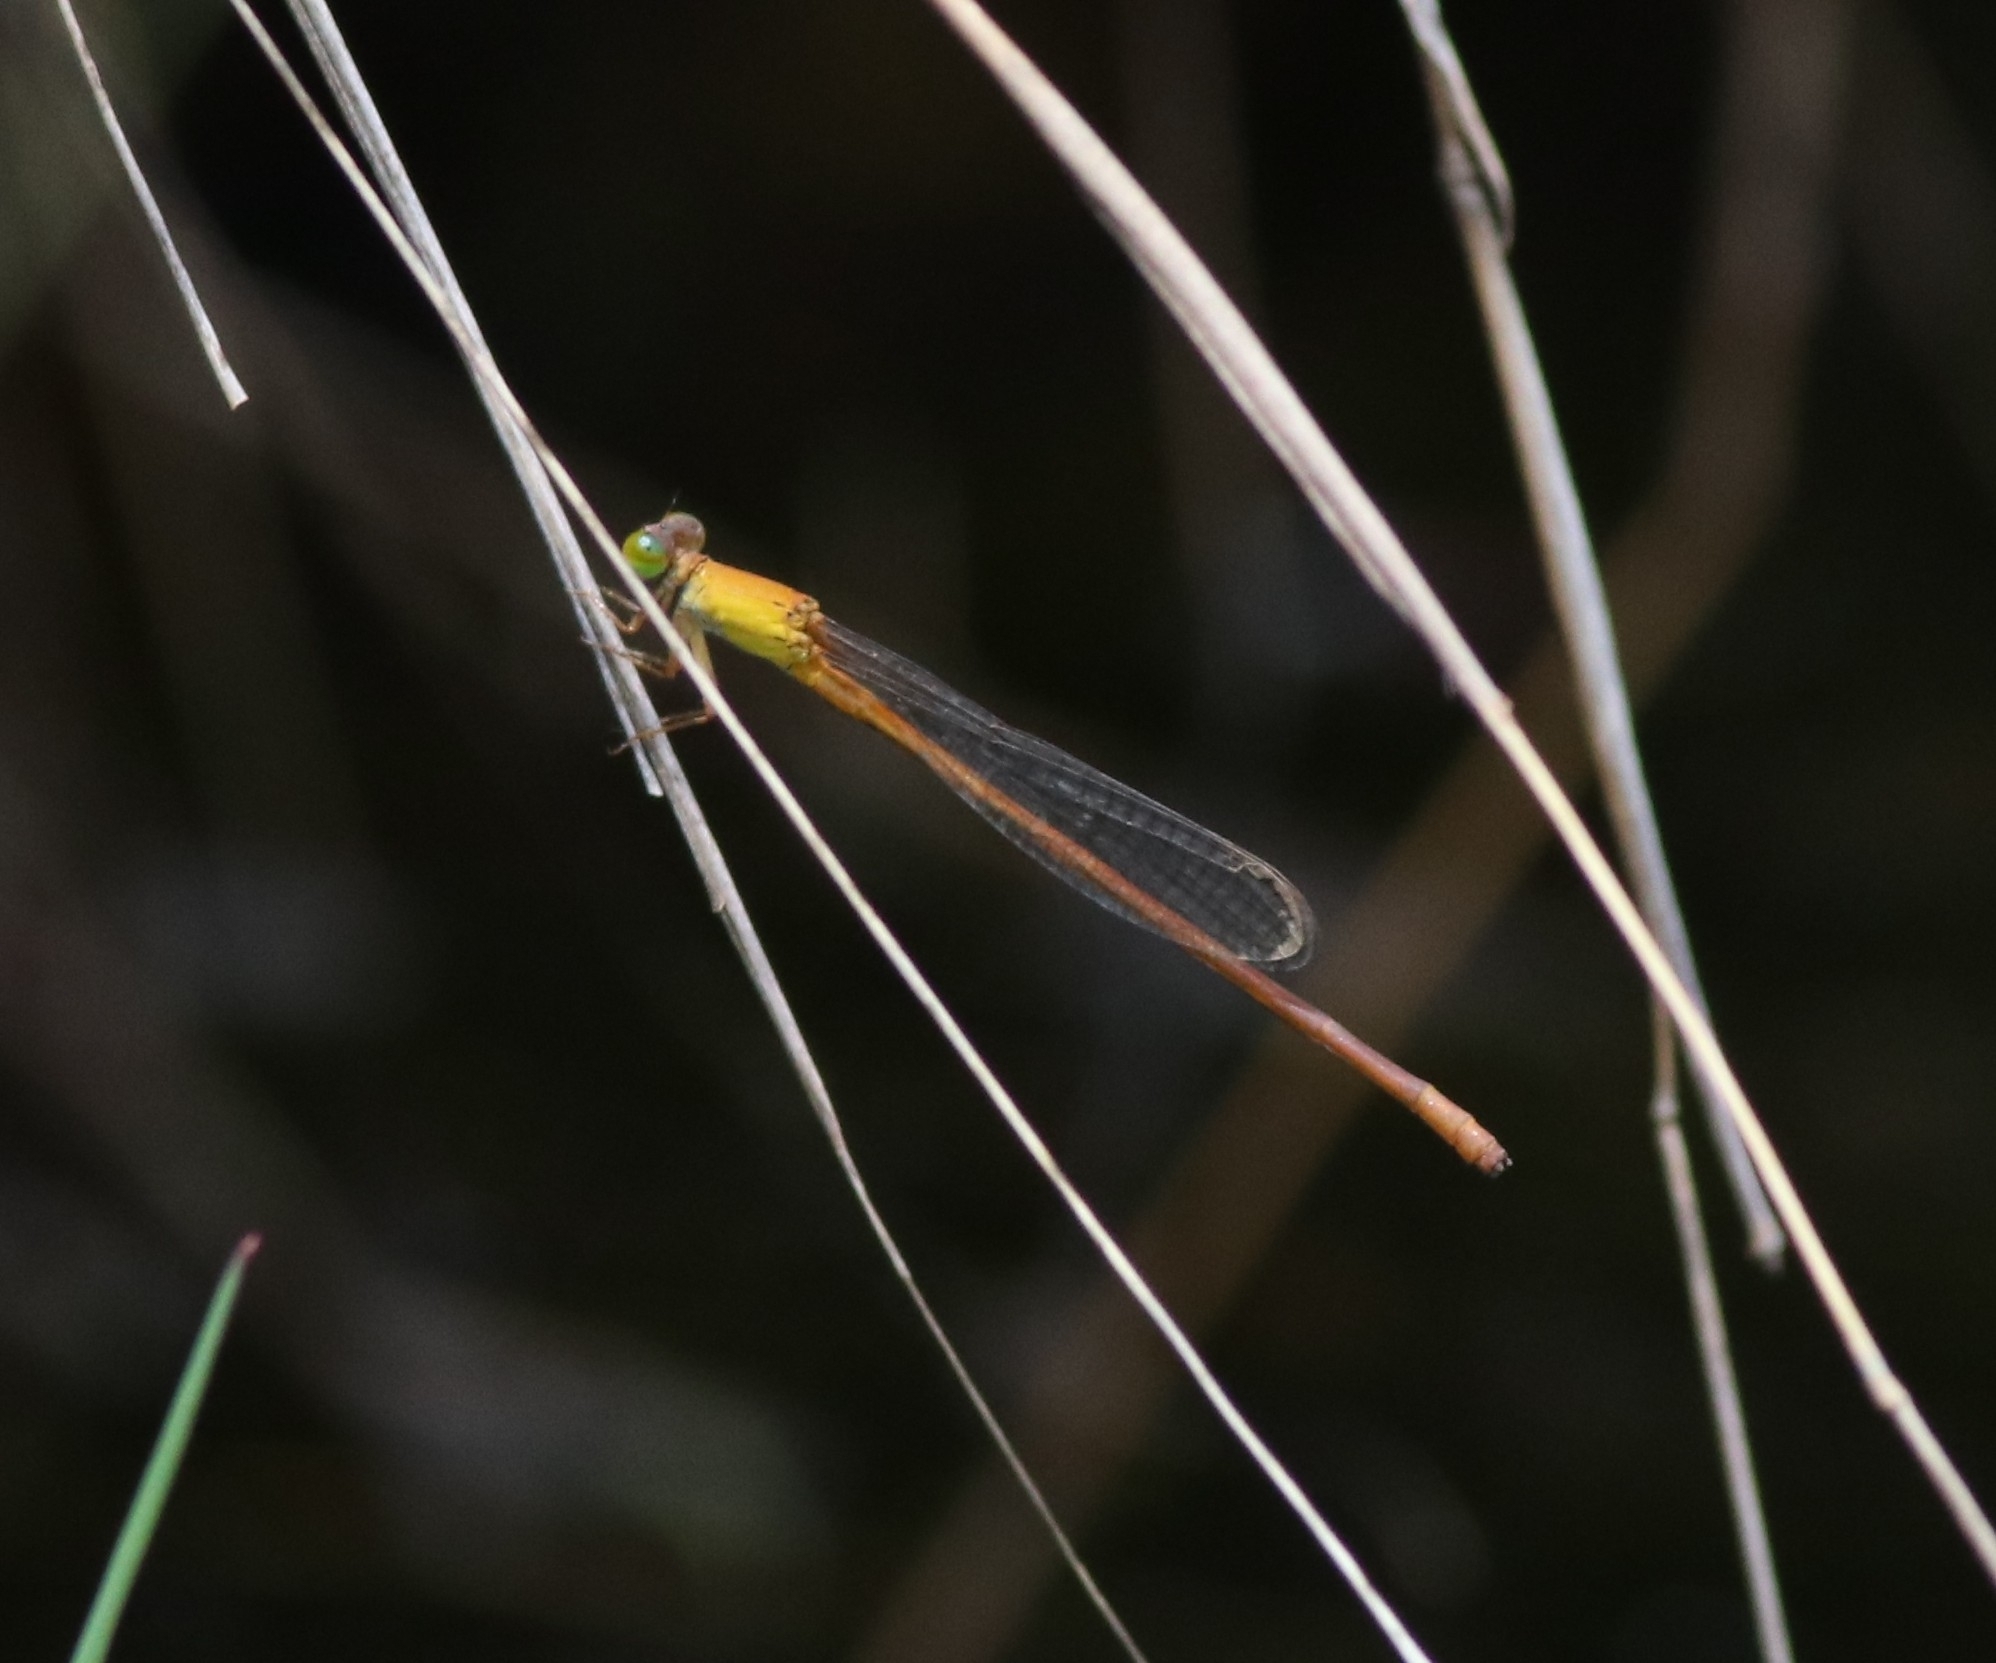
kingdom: Animalia
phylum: Arthropoda
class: Insecta
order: Odonata
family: Coenagrionidae
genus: Ceriagrion
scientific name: Ceriagrion rubiae
